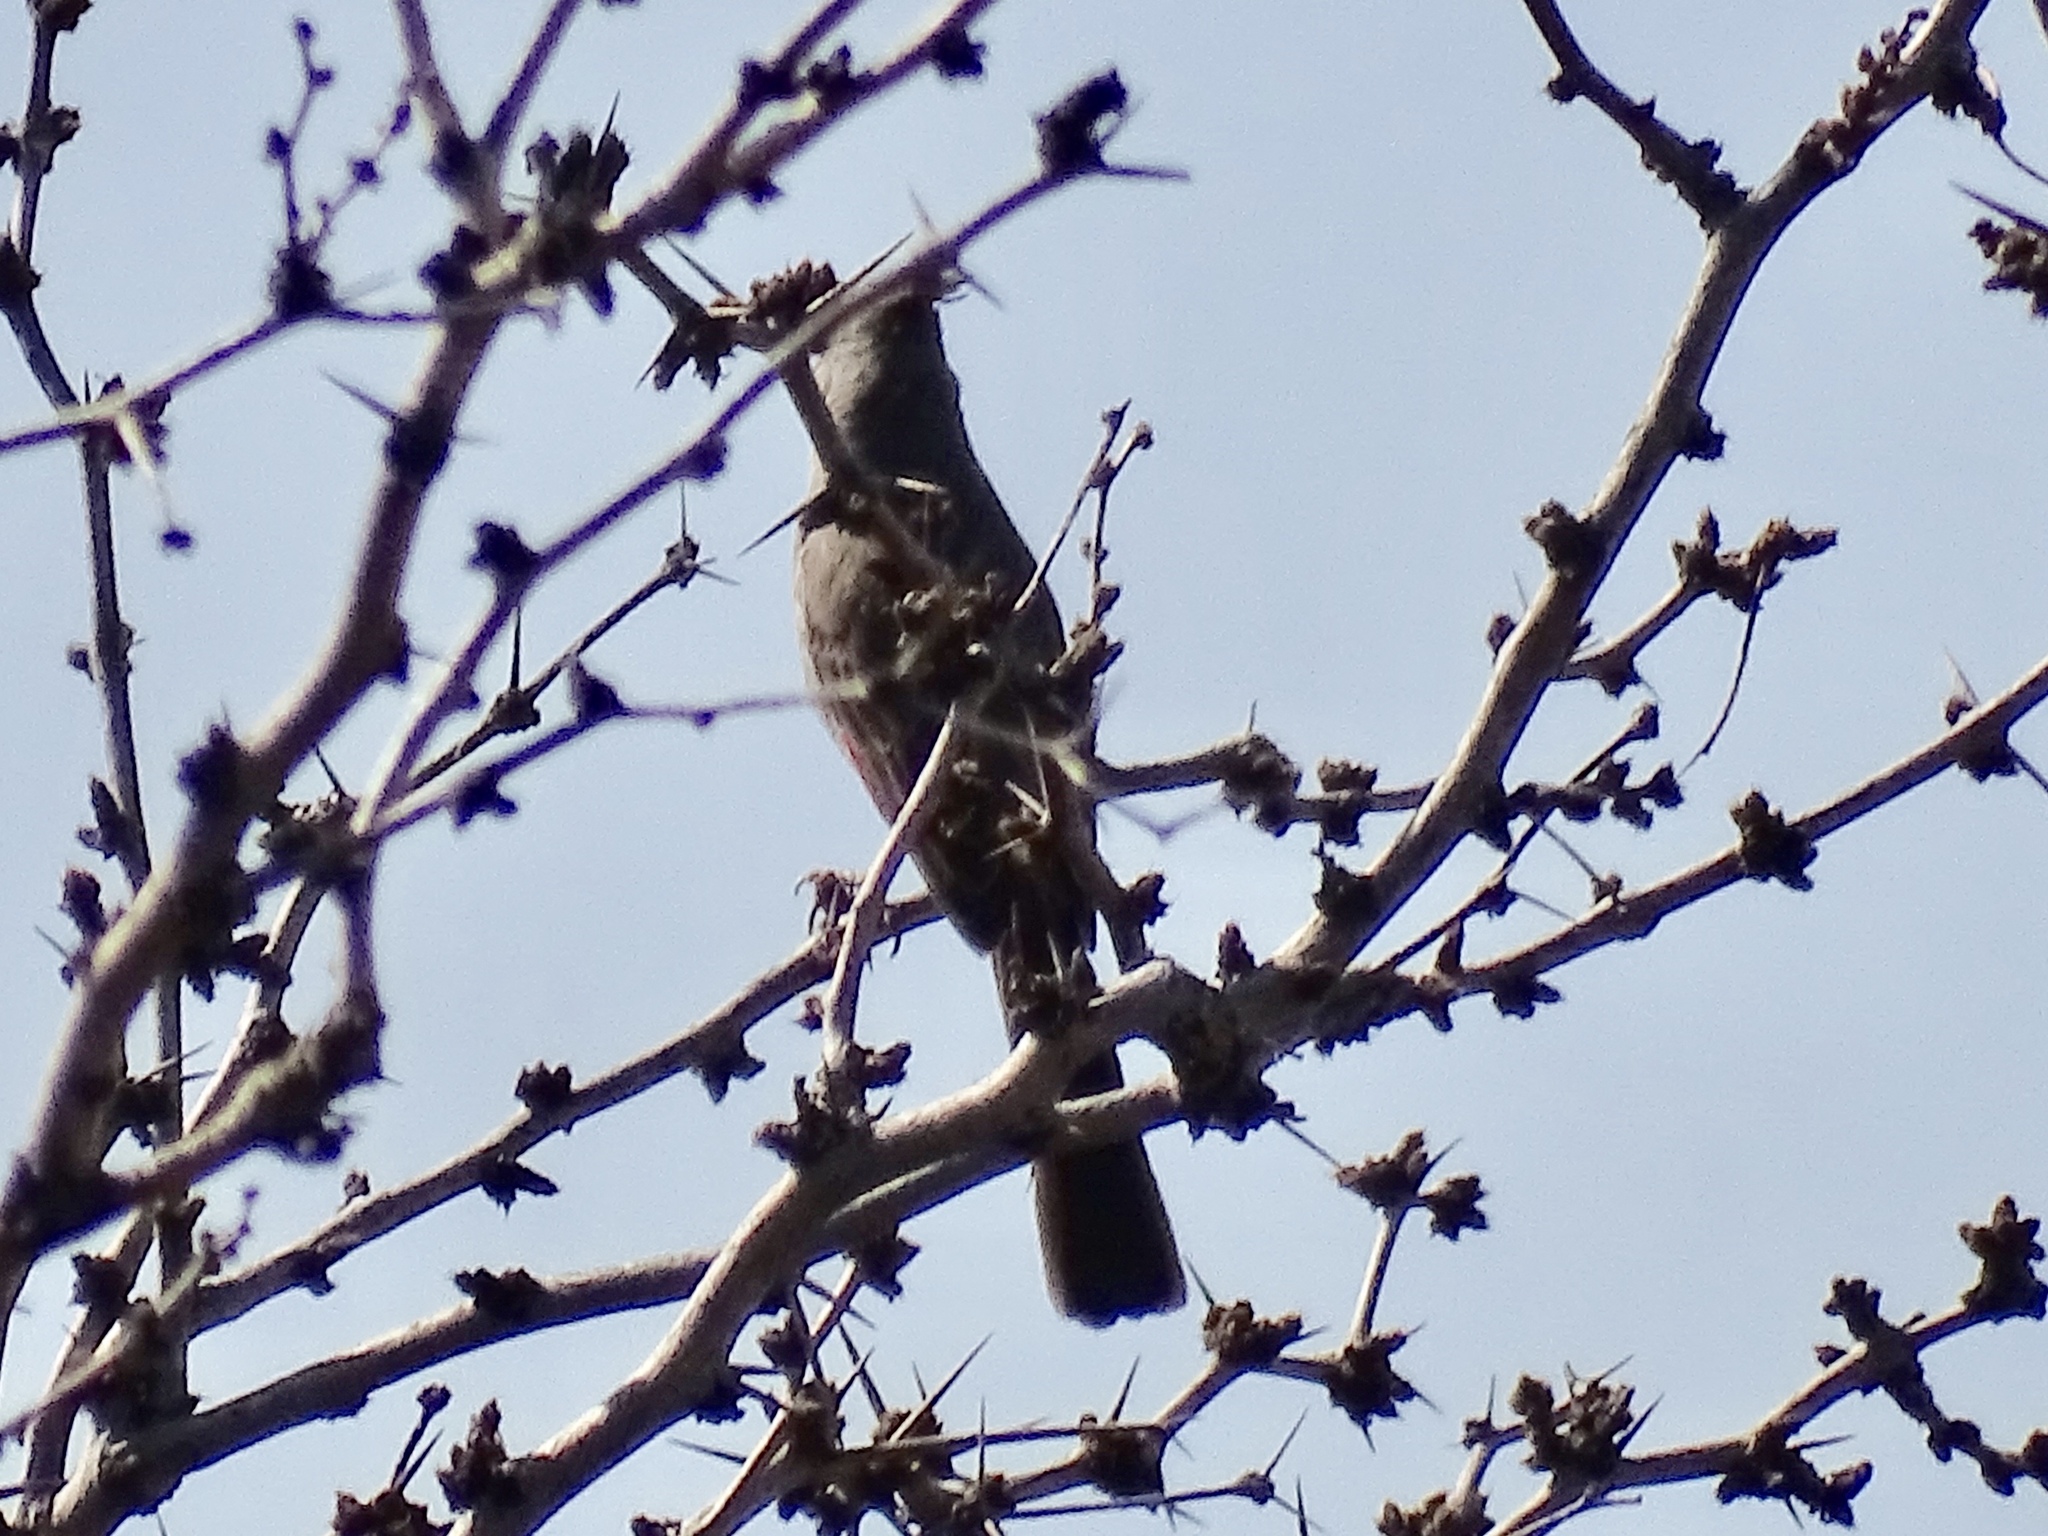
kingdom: Animalia
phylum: Chordata
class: Aves
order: Passeriformes
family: Cardinalidae
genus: Cardinalis
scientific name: Cardinalis sinuatus
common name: Pyrrhuloxia
